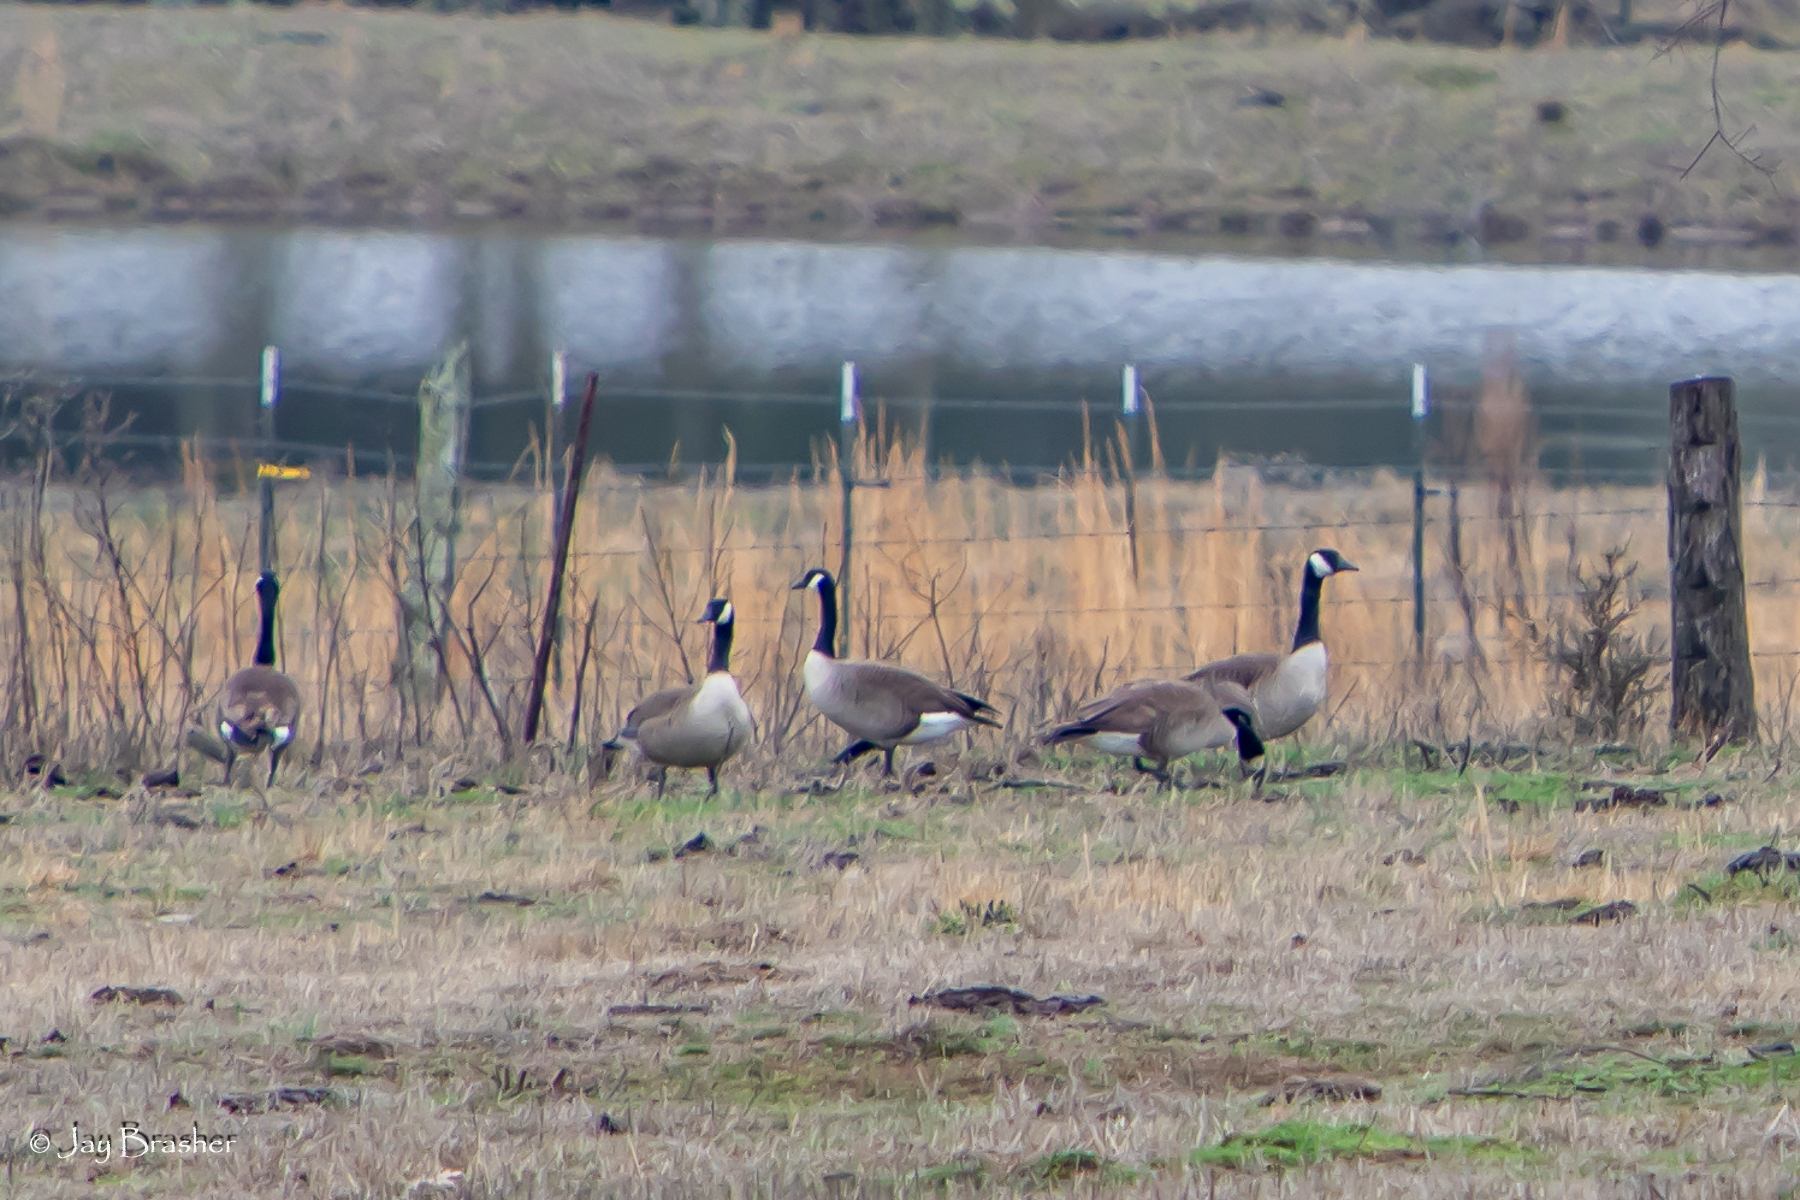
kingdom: Animalia
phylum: Chordata
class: Aves
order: Anseriformes
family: Anatidae
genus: Branta
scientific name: Branta canadensis
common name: Canada goose
